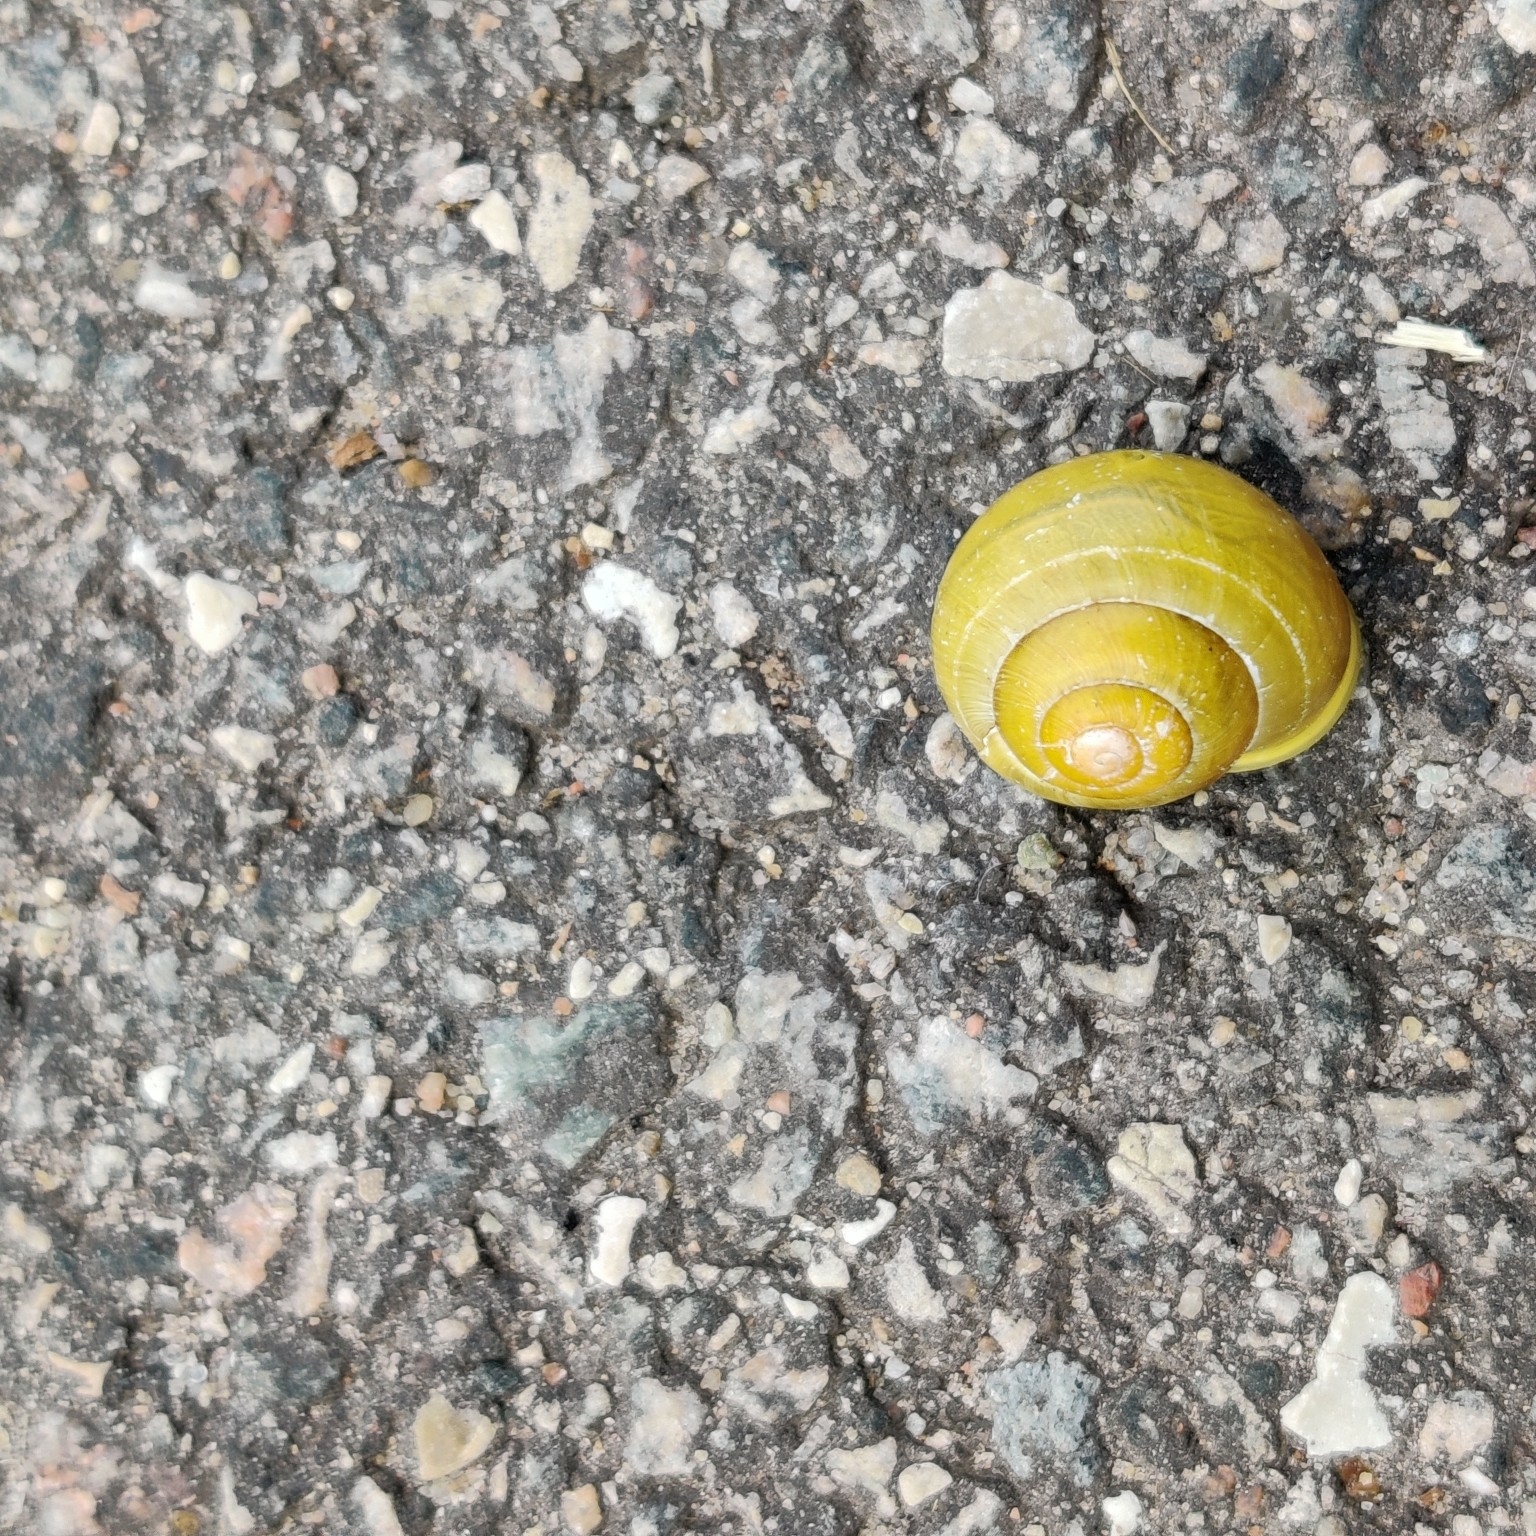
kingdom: Animalia
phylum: Mollusca
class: Gastropoda
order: Stylommatophora
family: Helicidae
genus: Cepaea
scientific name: Cepaea hortensis
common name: White-lip gardensnail
